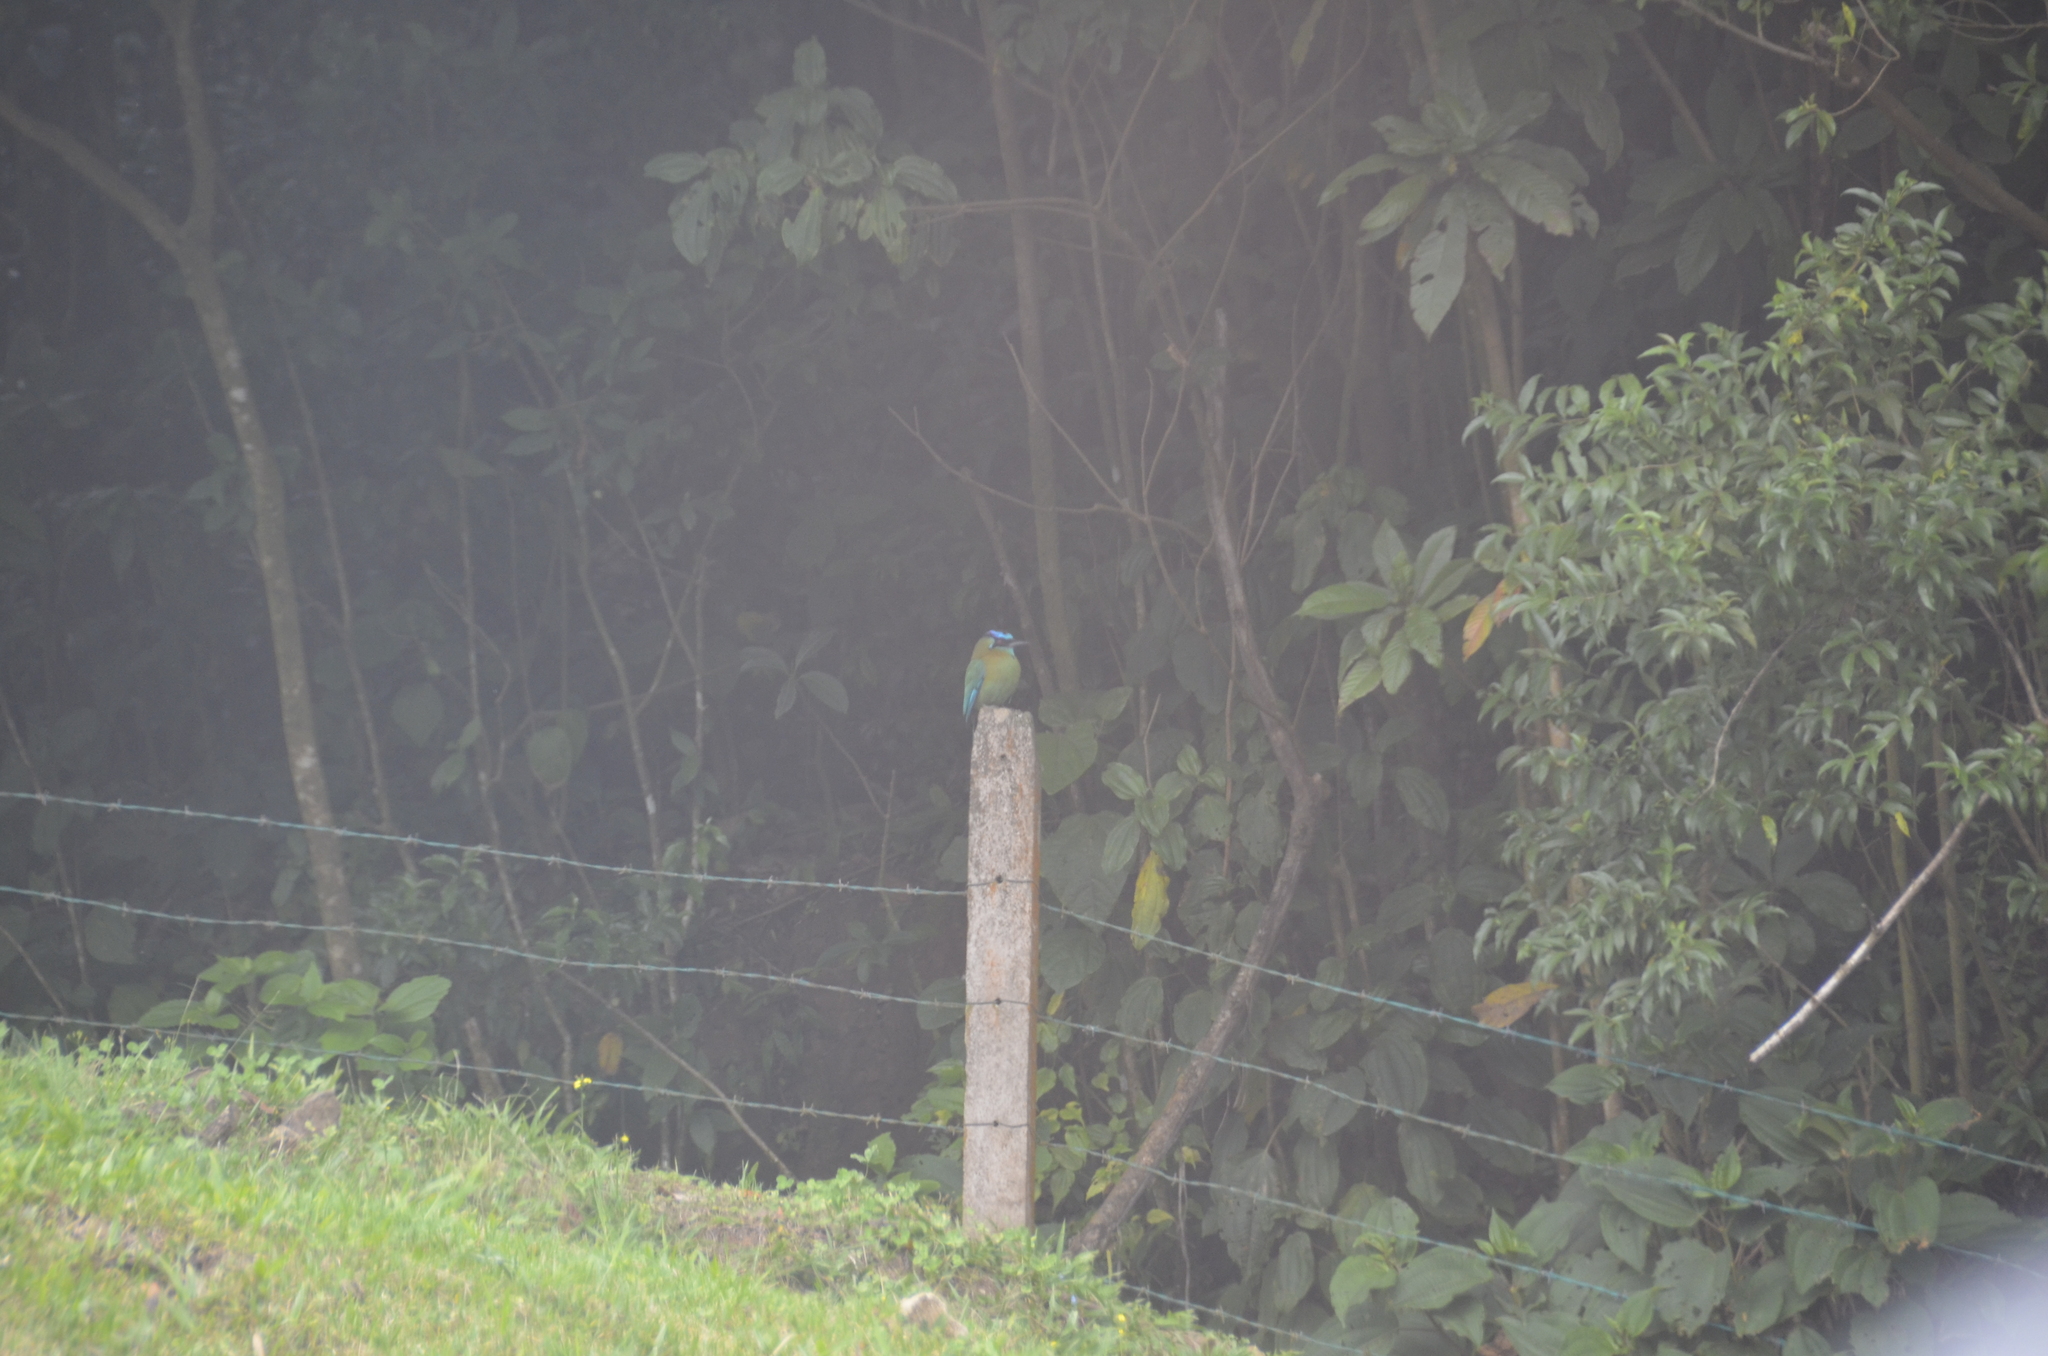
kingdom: Animalia
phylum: Chordata
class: Aves
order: Coraciiformes
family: Momotidae
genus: Momotus
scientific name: Momotus lessonii
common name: Lesson's motmot
